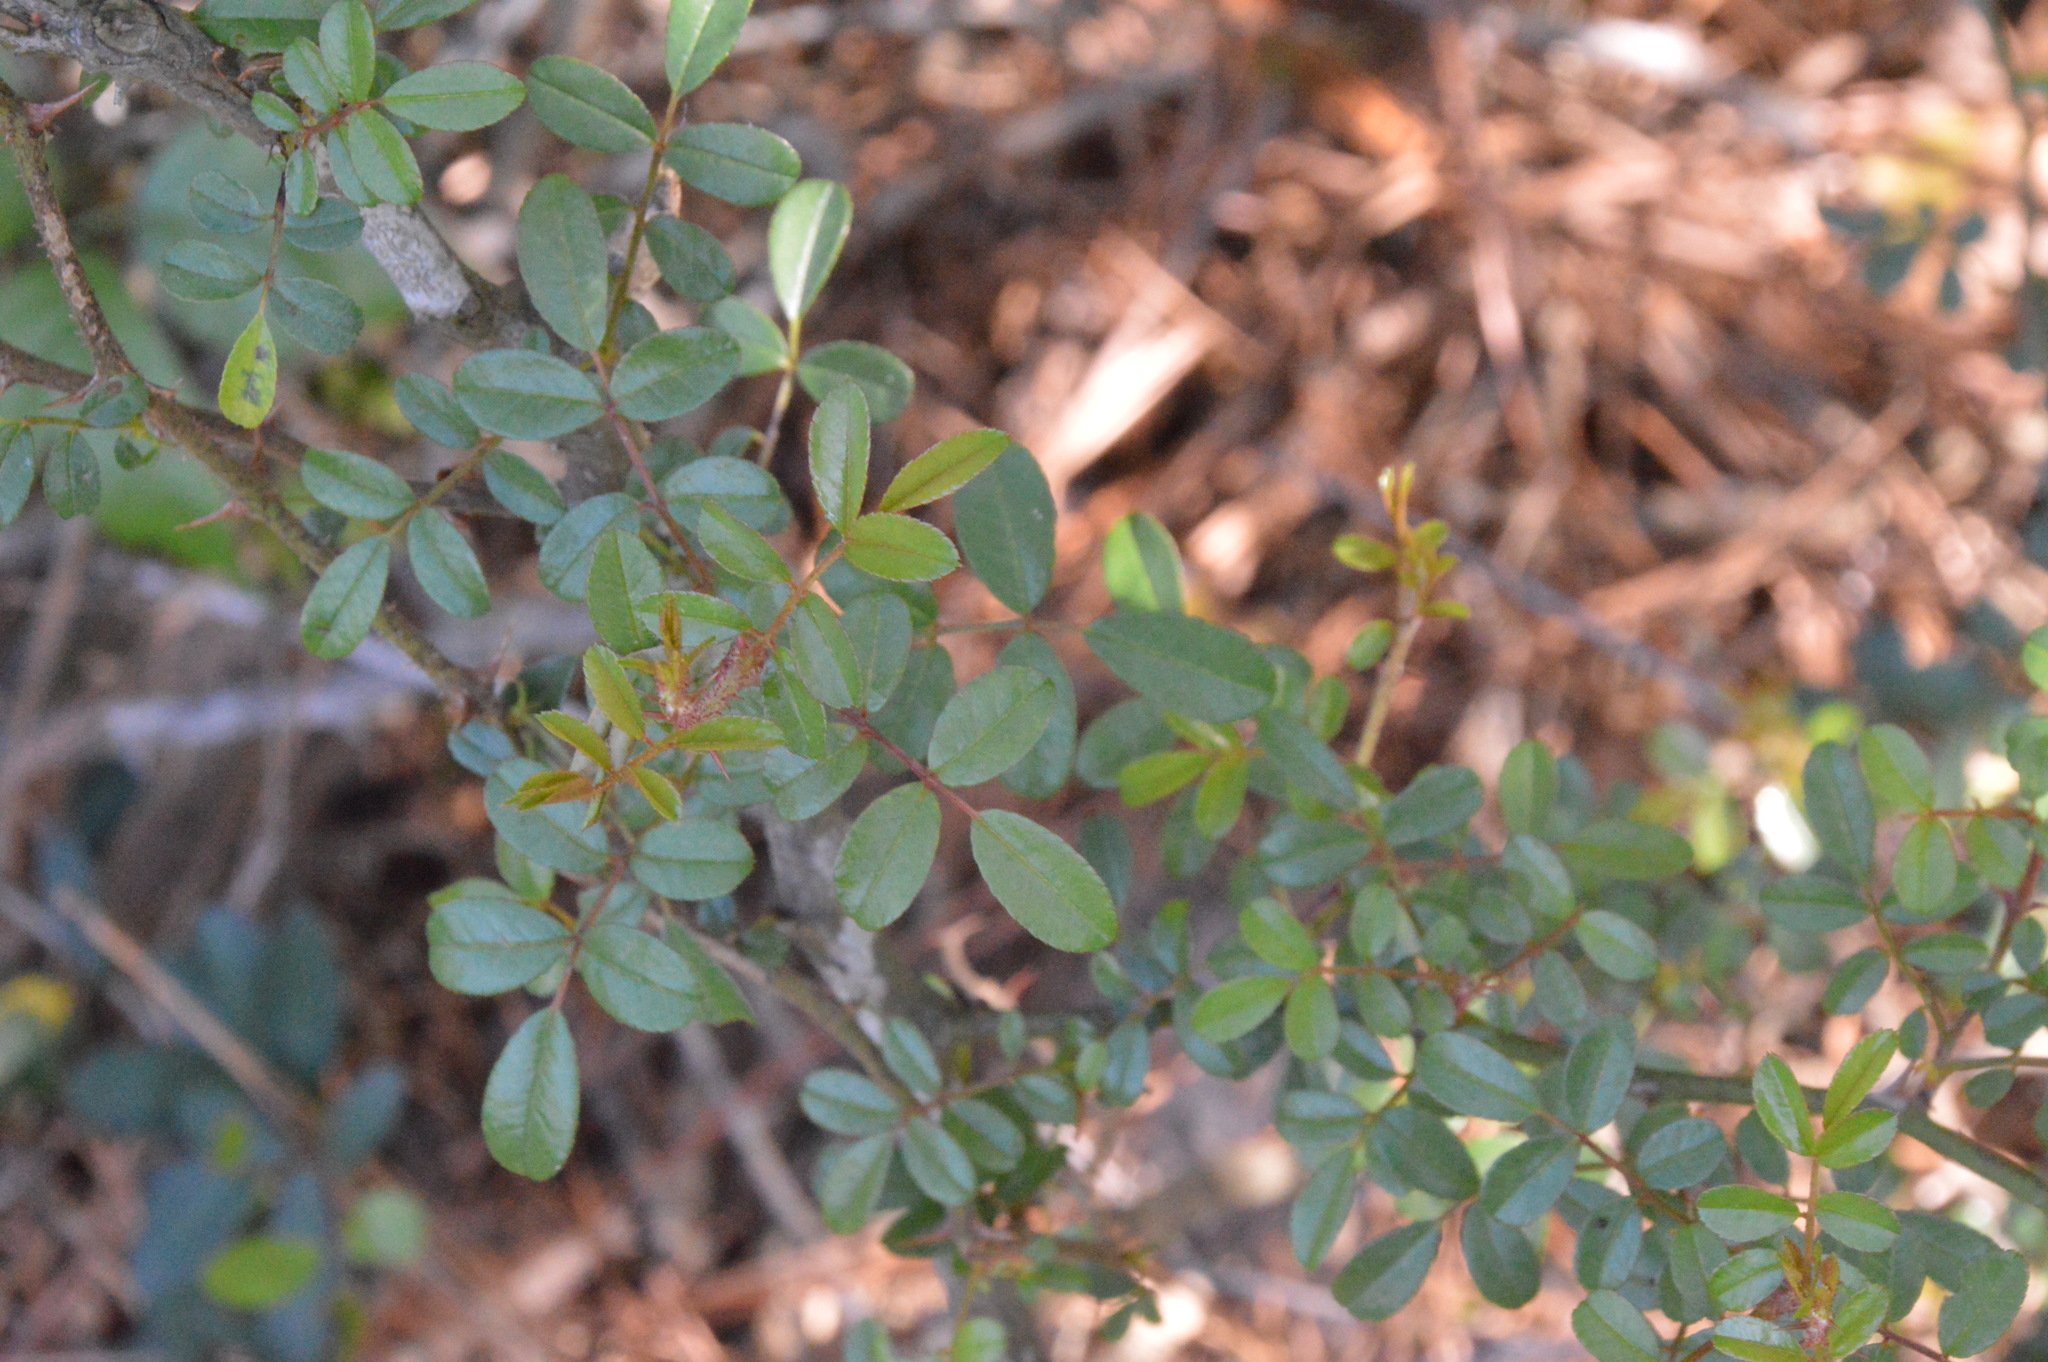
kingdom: Plantae
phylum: Tracheophyta
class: Magnoliopsida
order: Rosales
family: Rosaceae
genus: Rosa
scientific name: Rosa bracteata
